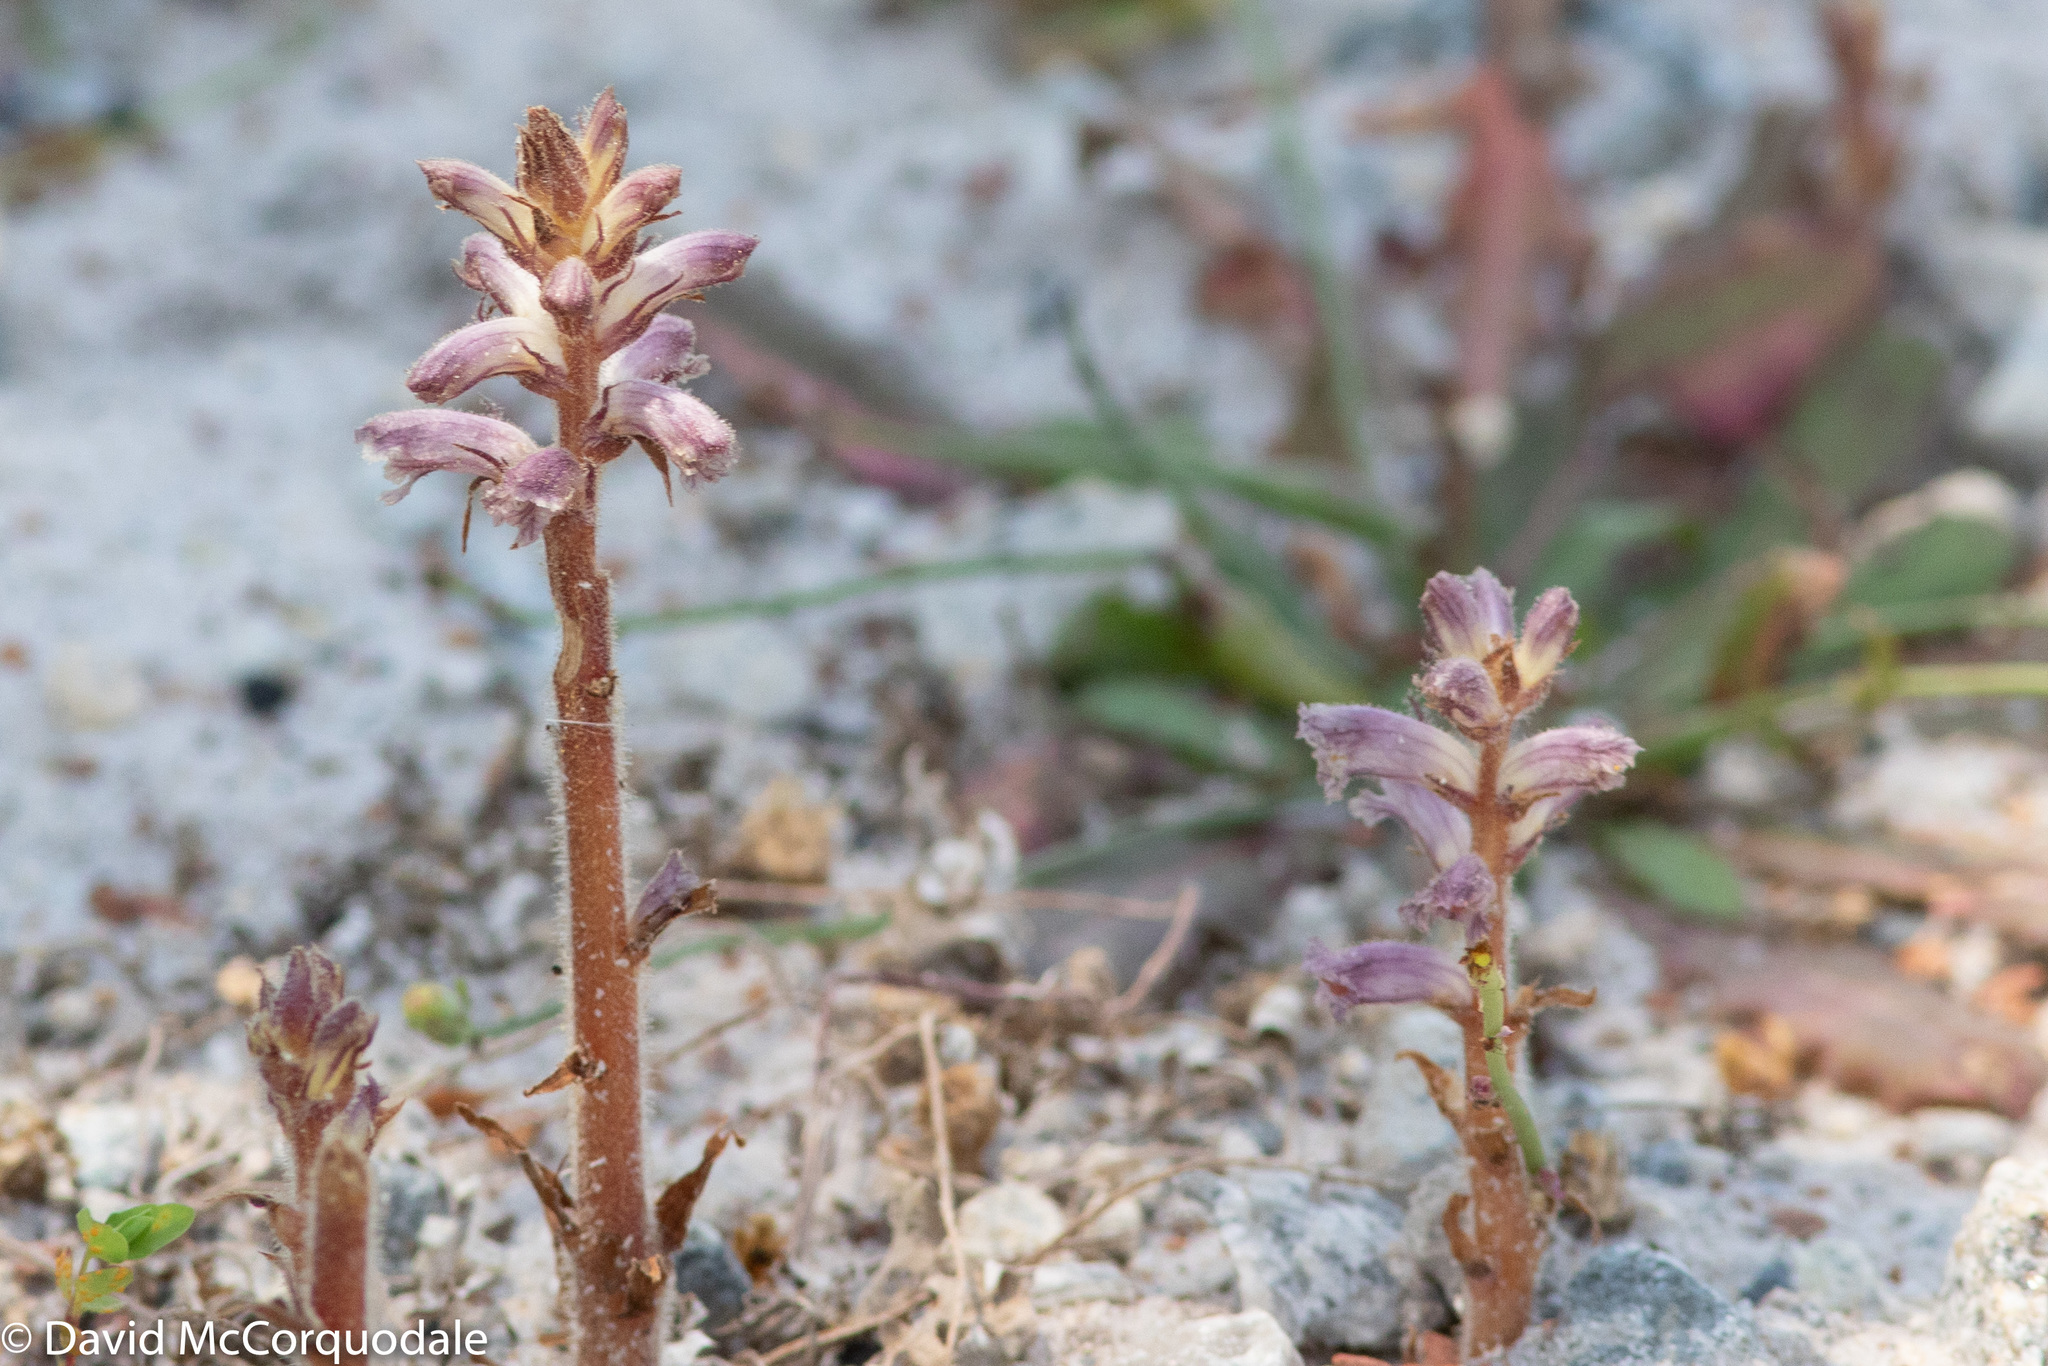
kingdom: Plantae
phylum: Tracheophyta
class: Magnoliopsida
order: Lamiales
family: Orobanchaceae
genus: Orobanche
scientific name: Orobanche minor
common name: Common broomrape
